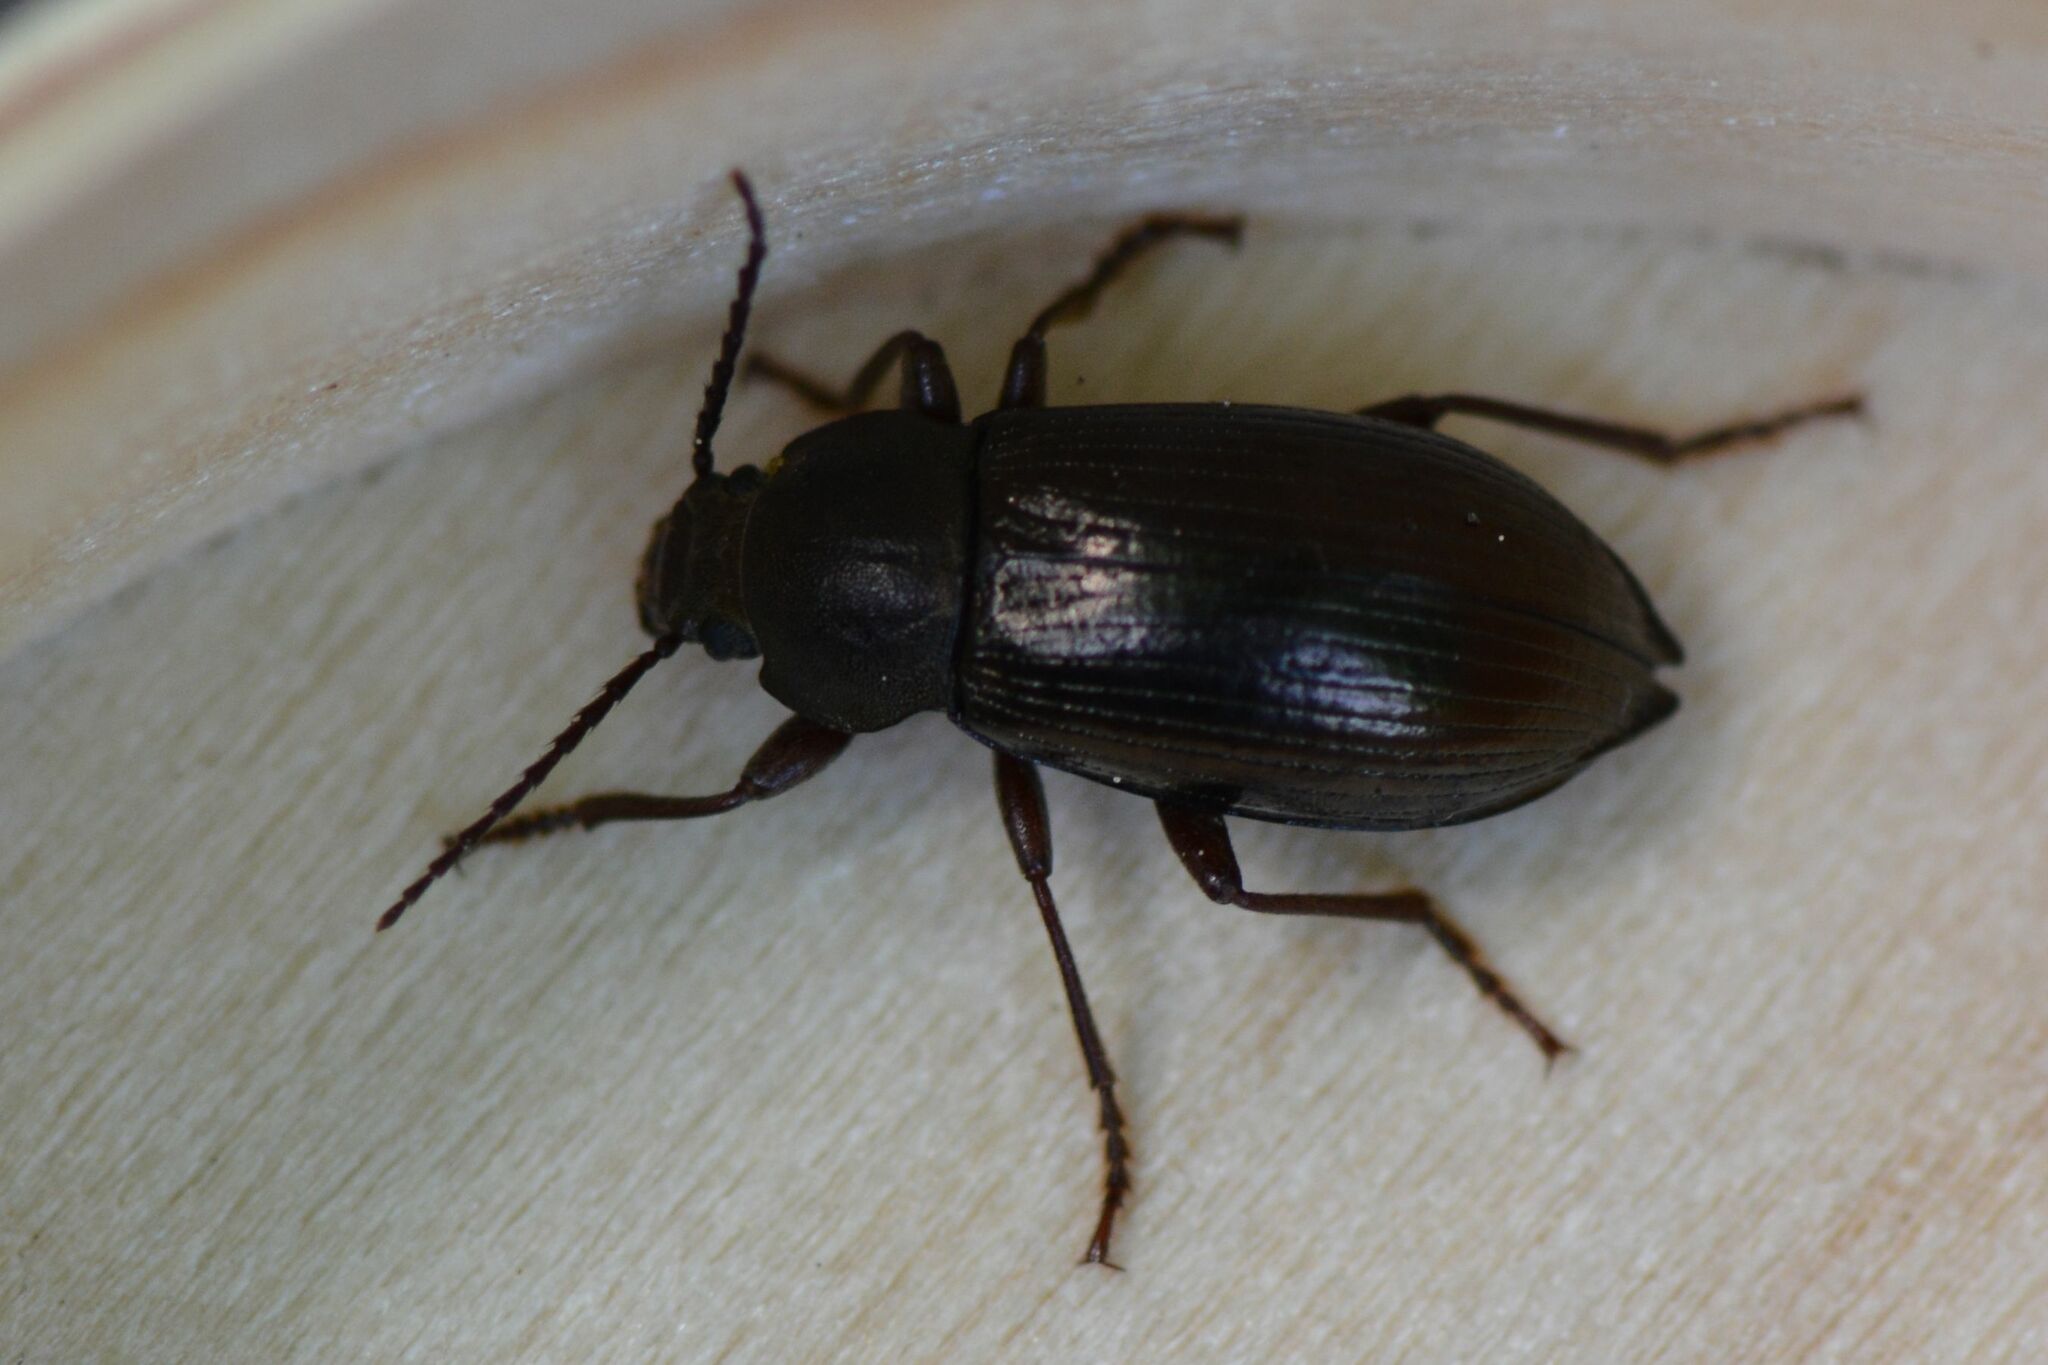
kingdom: Animalia
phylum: Arthropoda
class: Insecta
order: Coleoptera
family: Tenebrionidae
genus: Stenomax
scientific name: Stenomax aeneus
